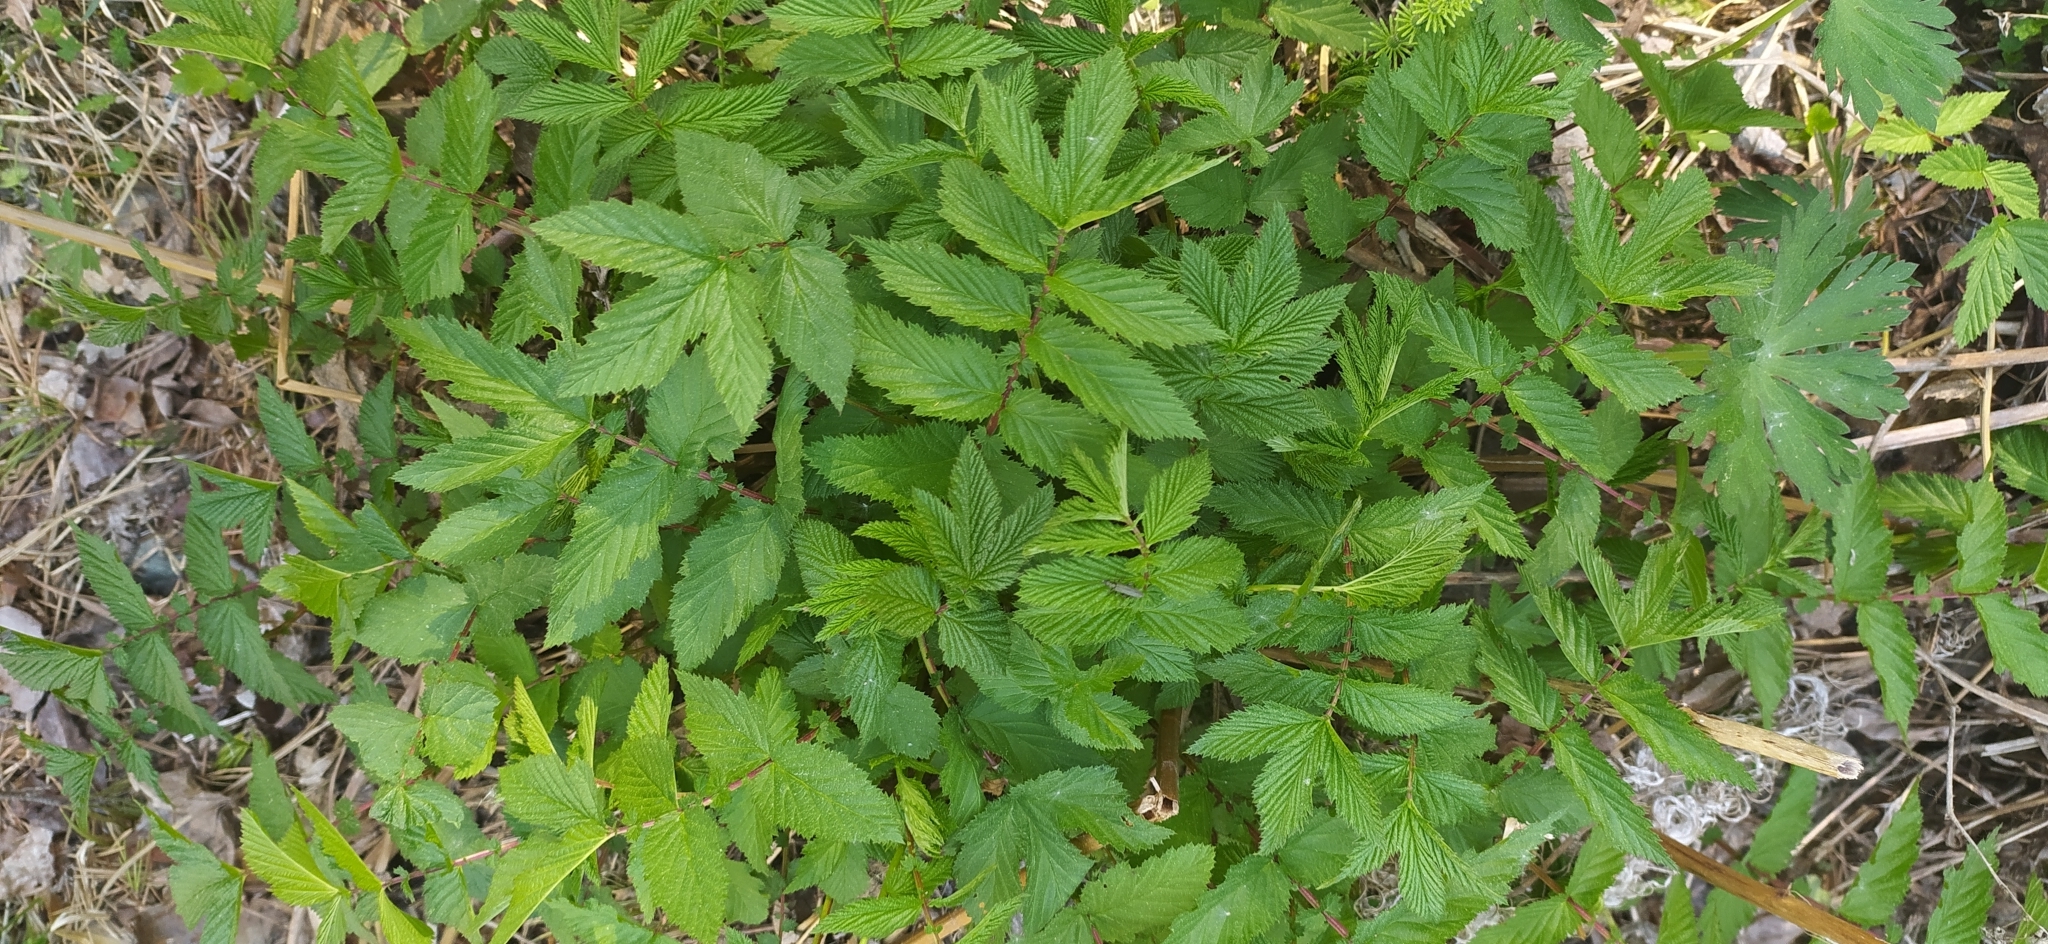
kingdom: Plantae
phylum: Tracheophyta
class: Magnoliopsida
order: Rosales
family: Rosaceae
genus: Filipendula
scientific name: Filipendula ulmaria
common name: Meadowsweet
